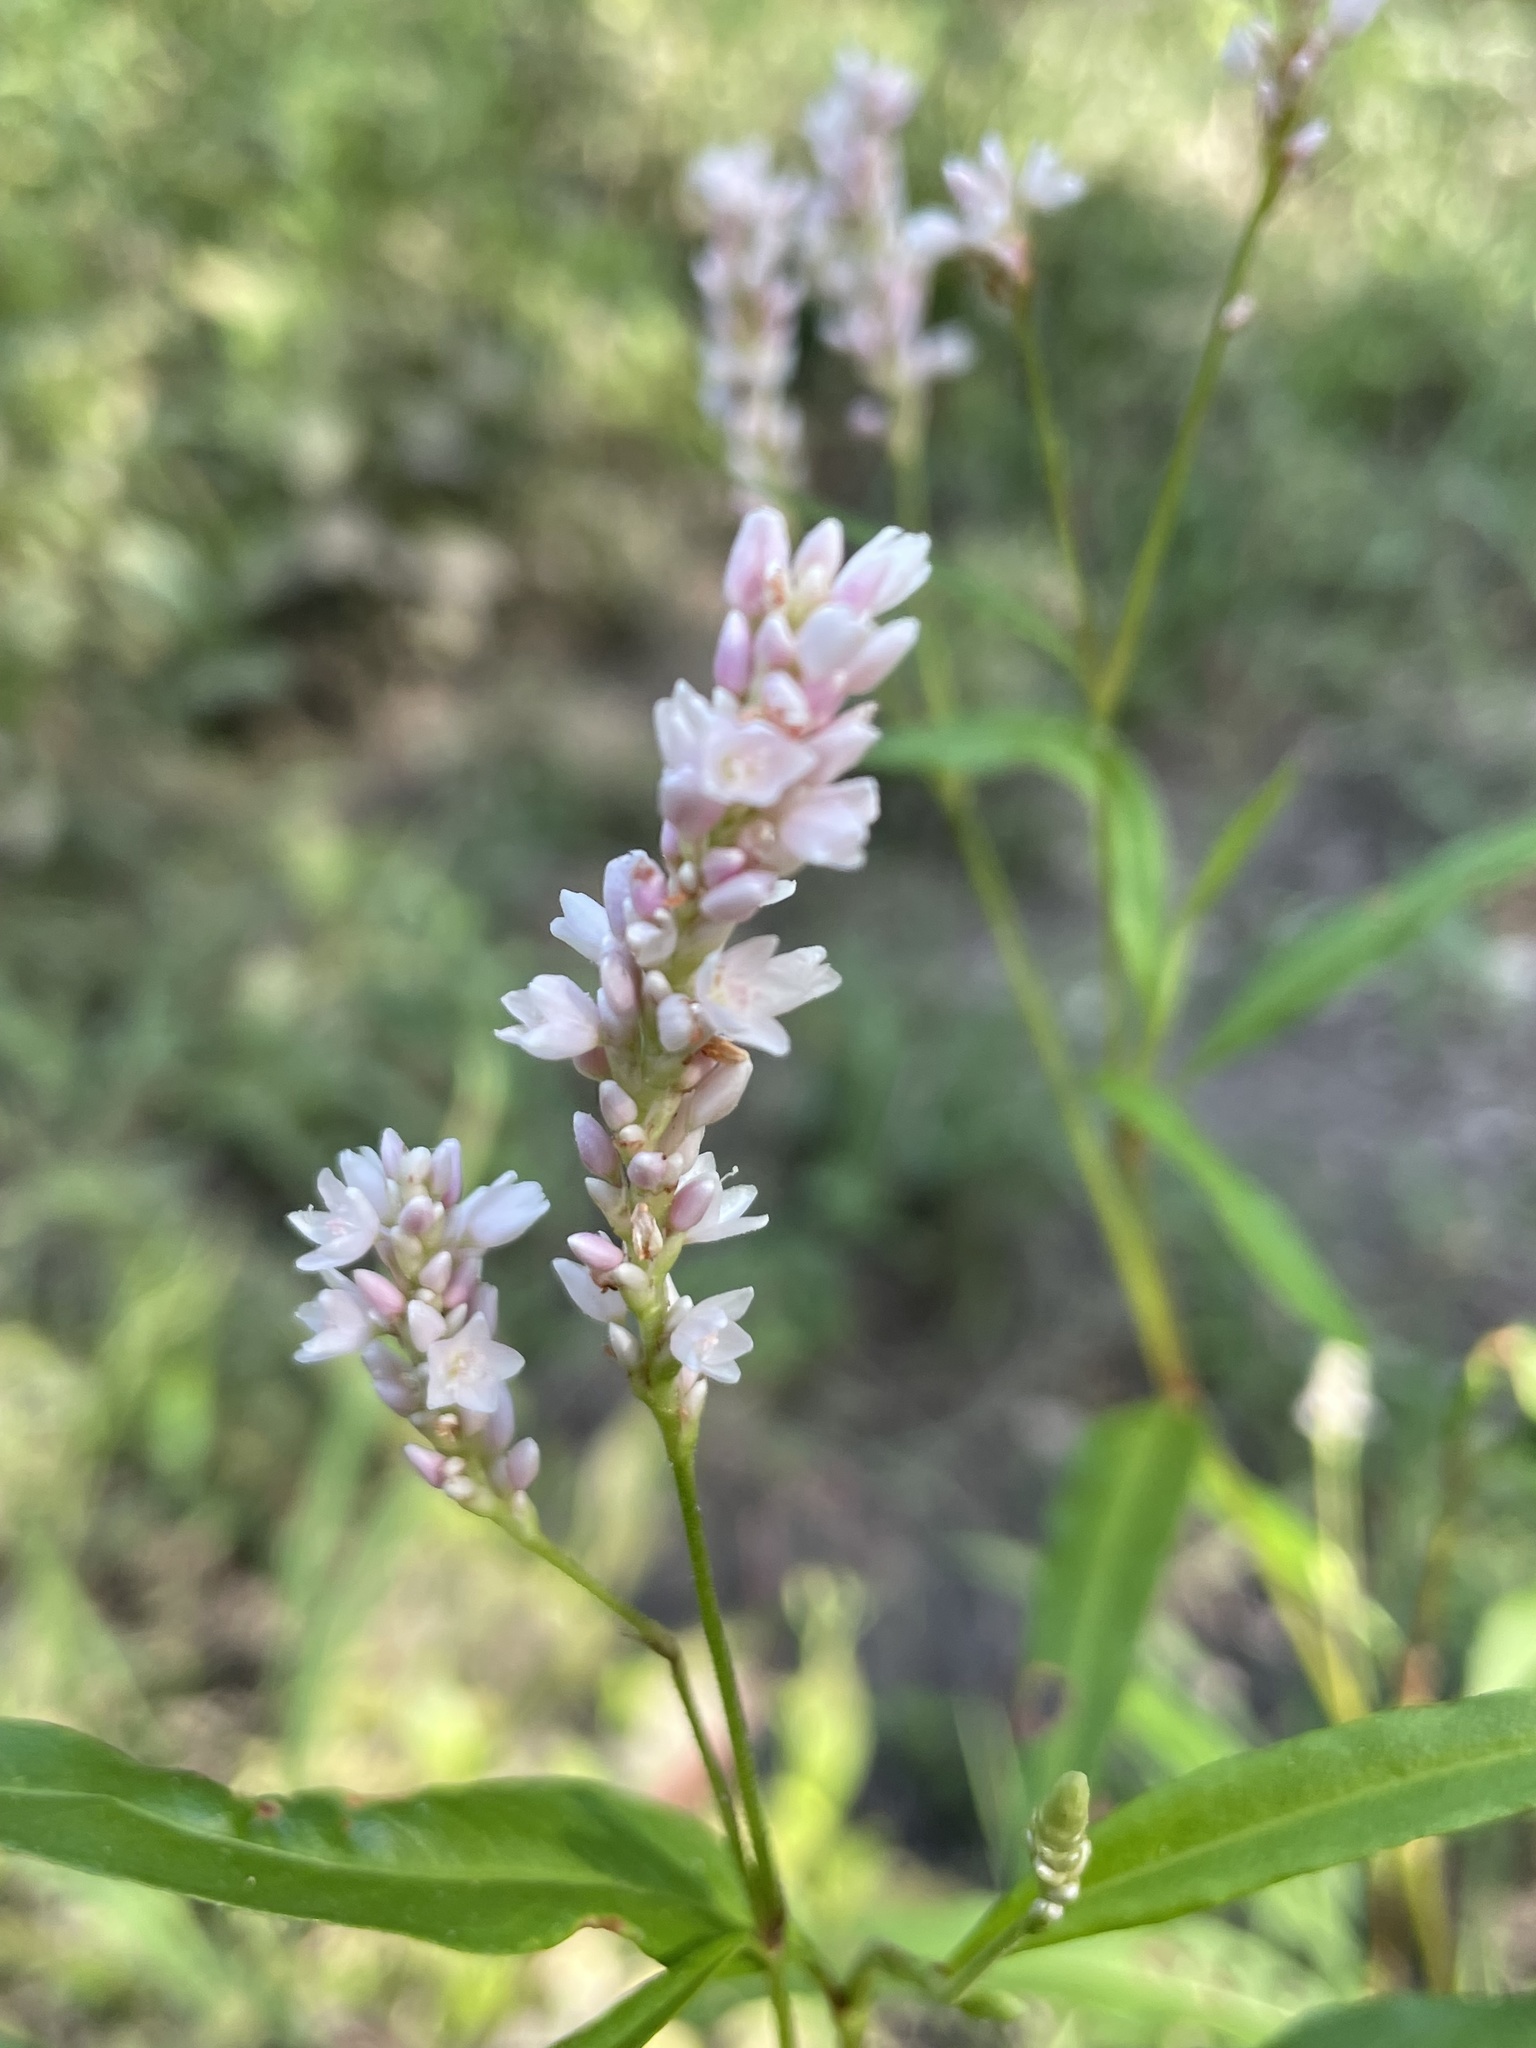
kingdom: Plantae
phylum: Tracheophyta
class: Magnoliopsida
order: Caryophyllales
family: Polygonaceae
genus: Persicaria
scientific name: Persicaria bicornis
